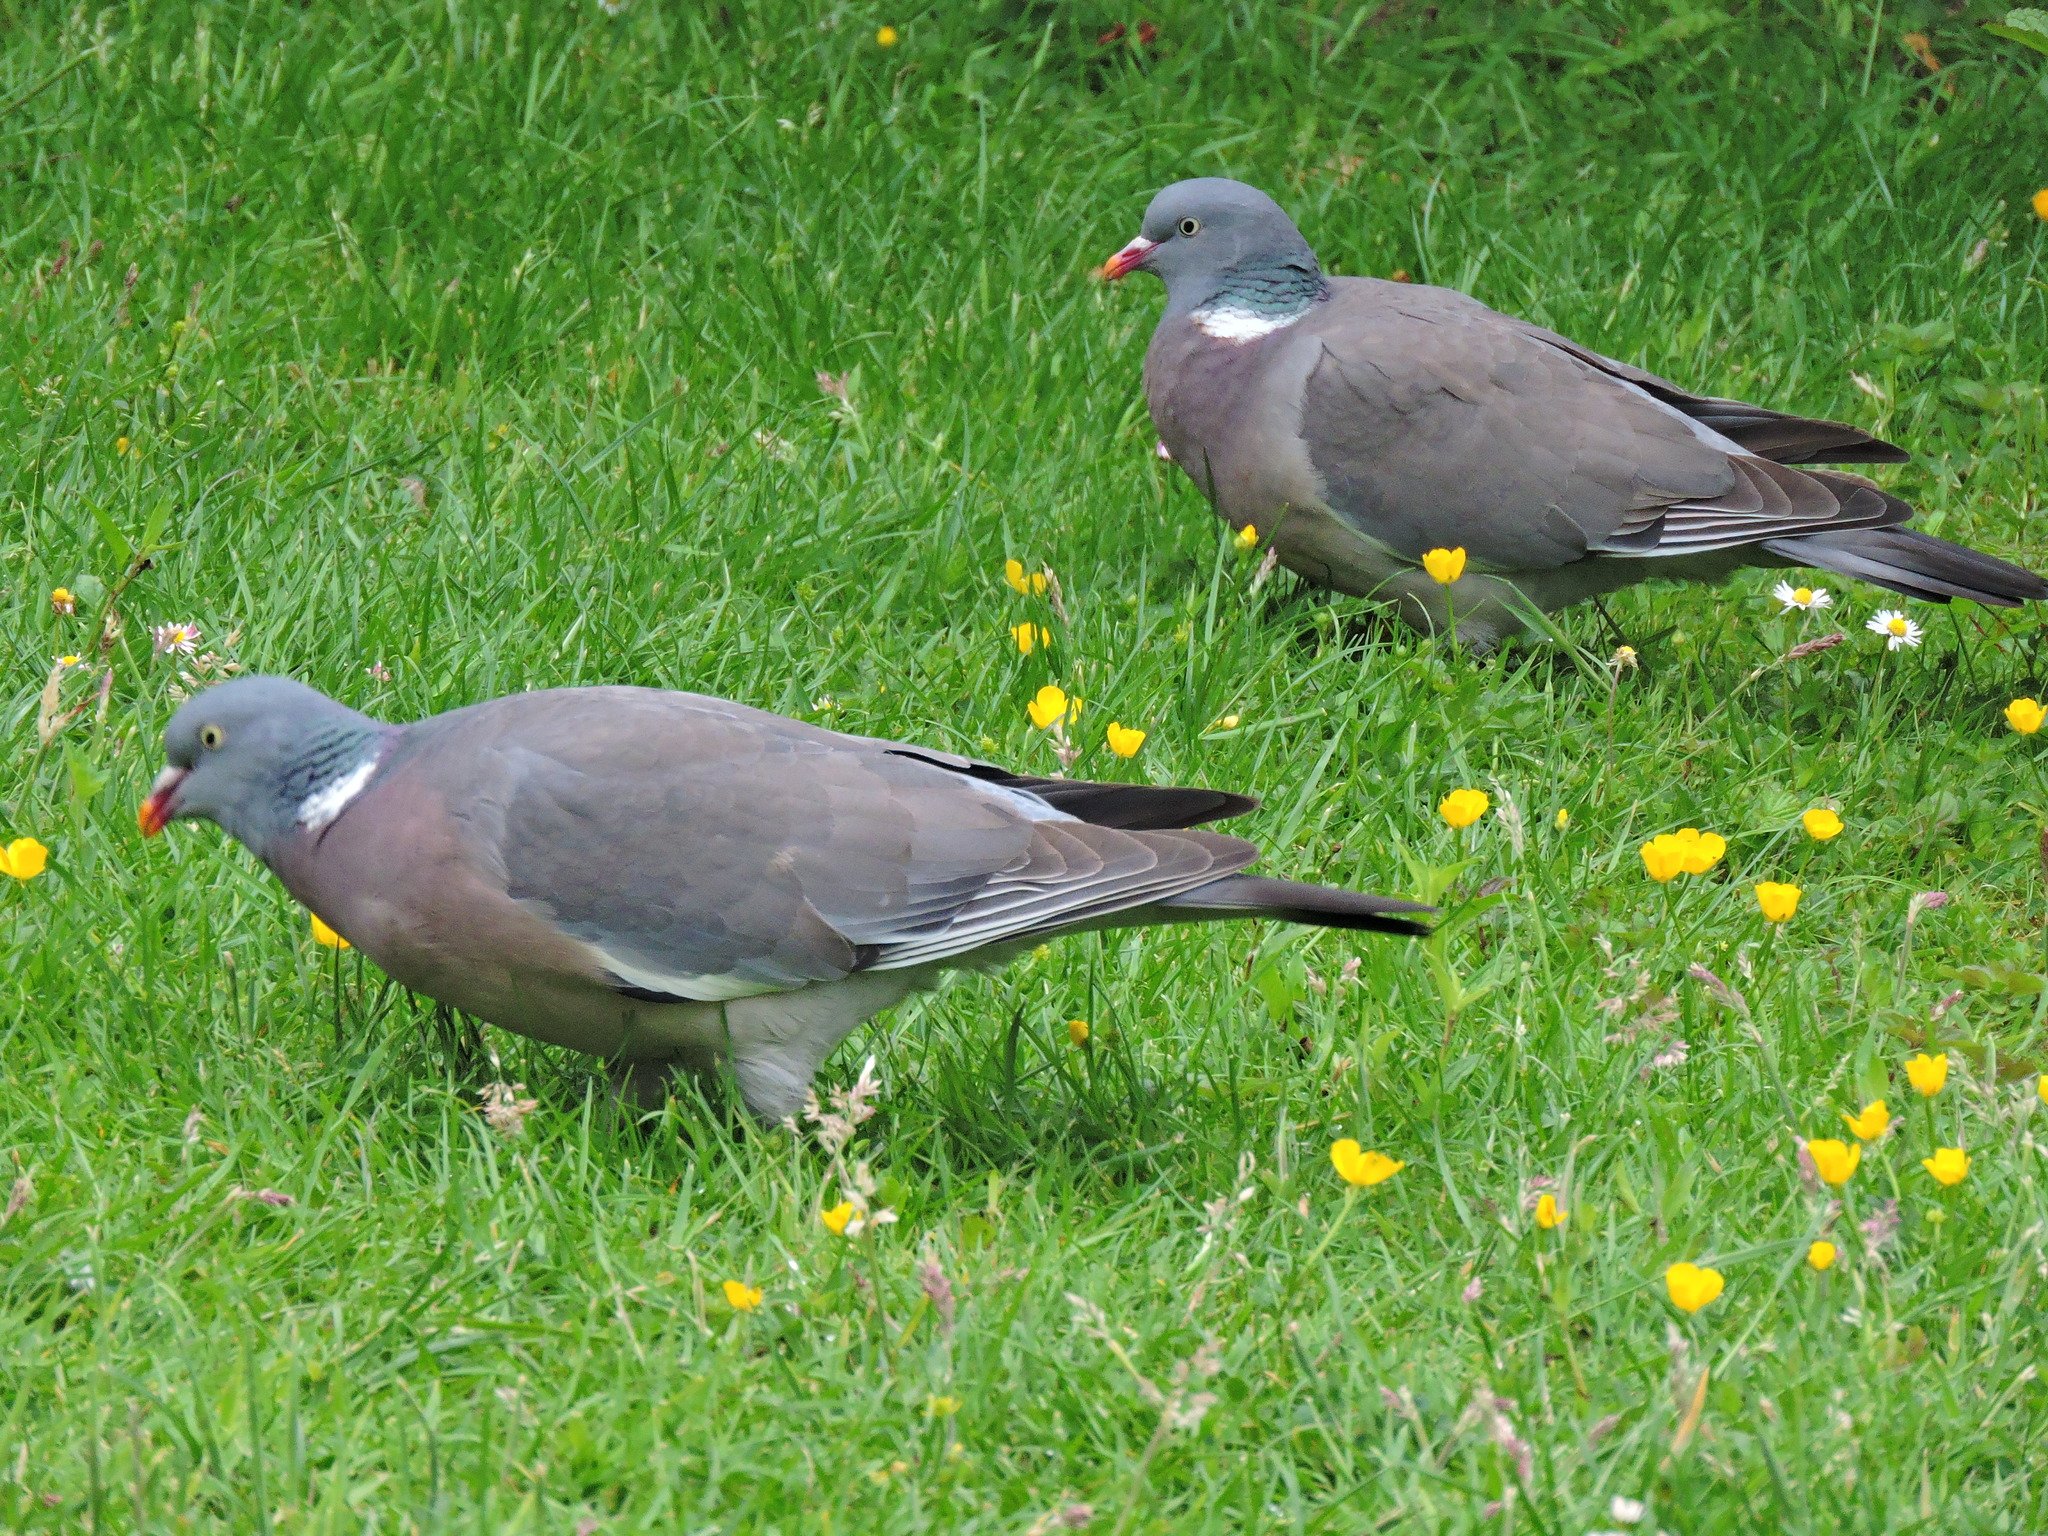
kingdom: Animalia
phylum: Chordata
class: Aves
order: Columbiformes
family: Columbidae
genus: Columba
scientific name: Columba palumbus
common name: Common wood pigeon
